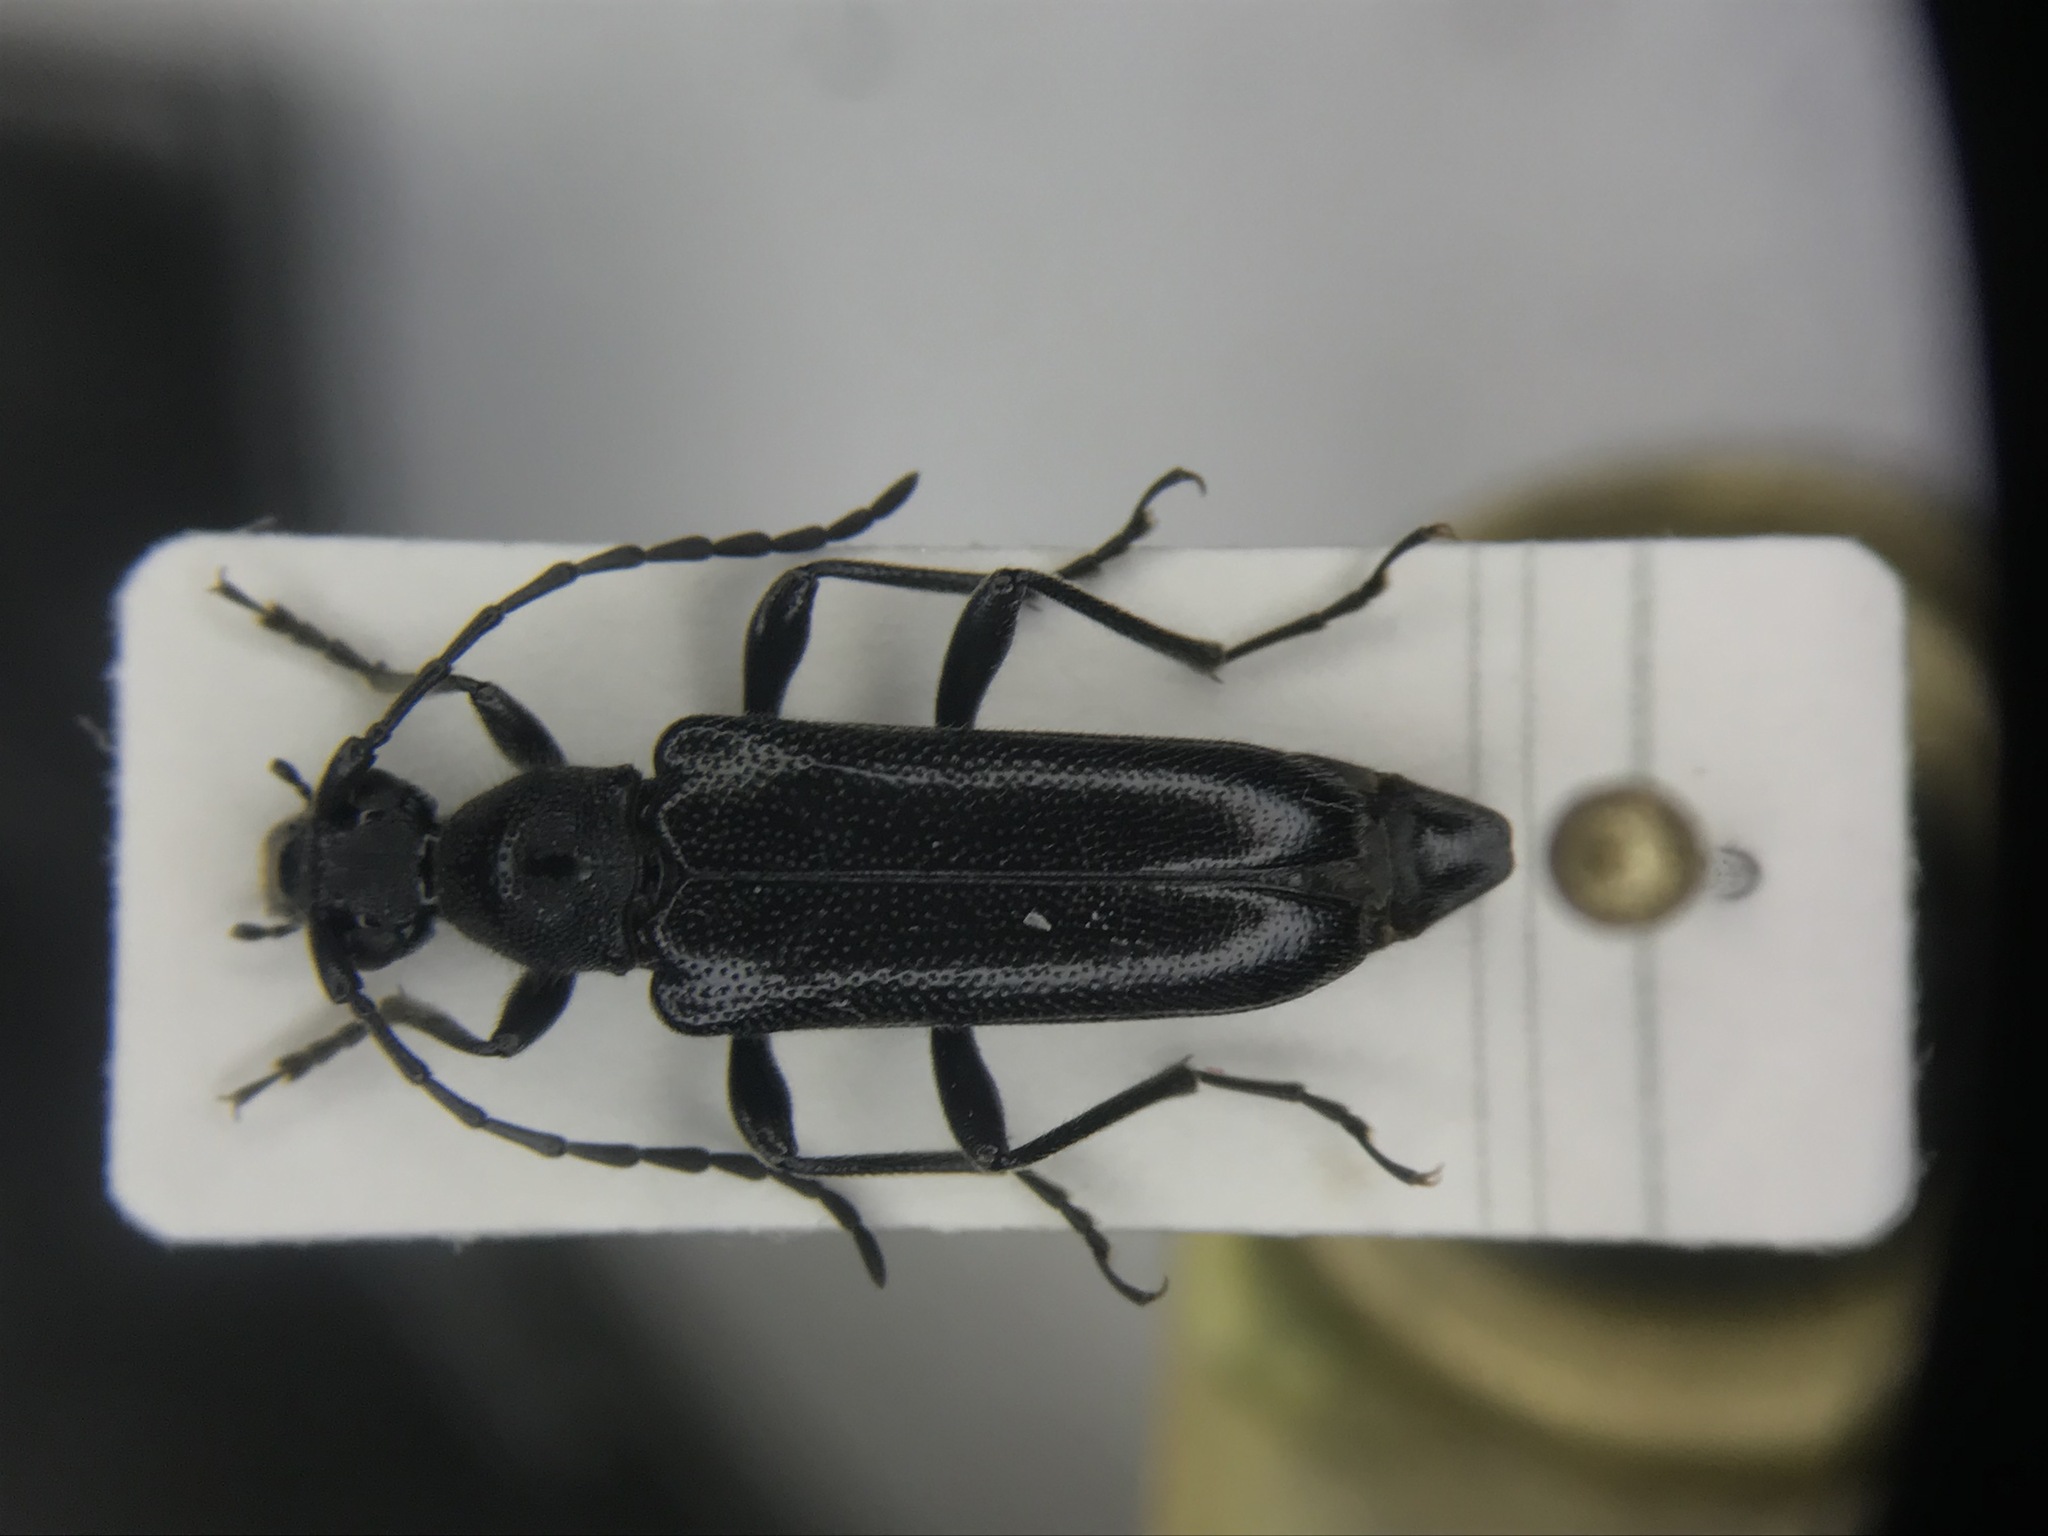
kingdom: Animalia
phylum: Arthropoda
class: Insecta
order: Coleoptera
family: Cerambycidae
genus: Anoplodera
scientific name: Anoplodera pubera
